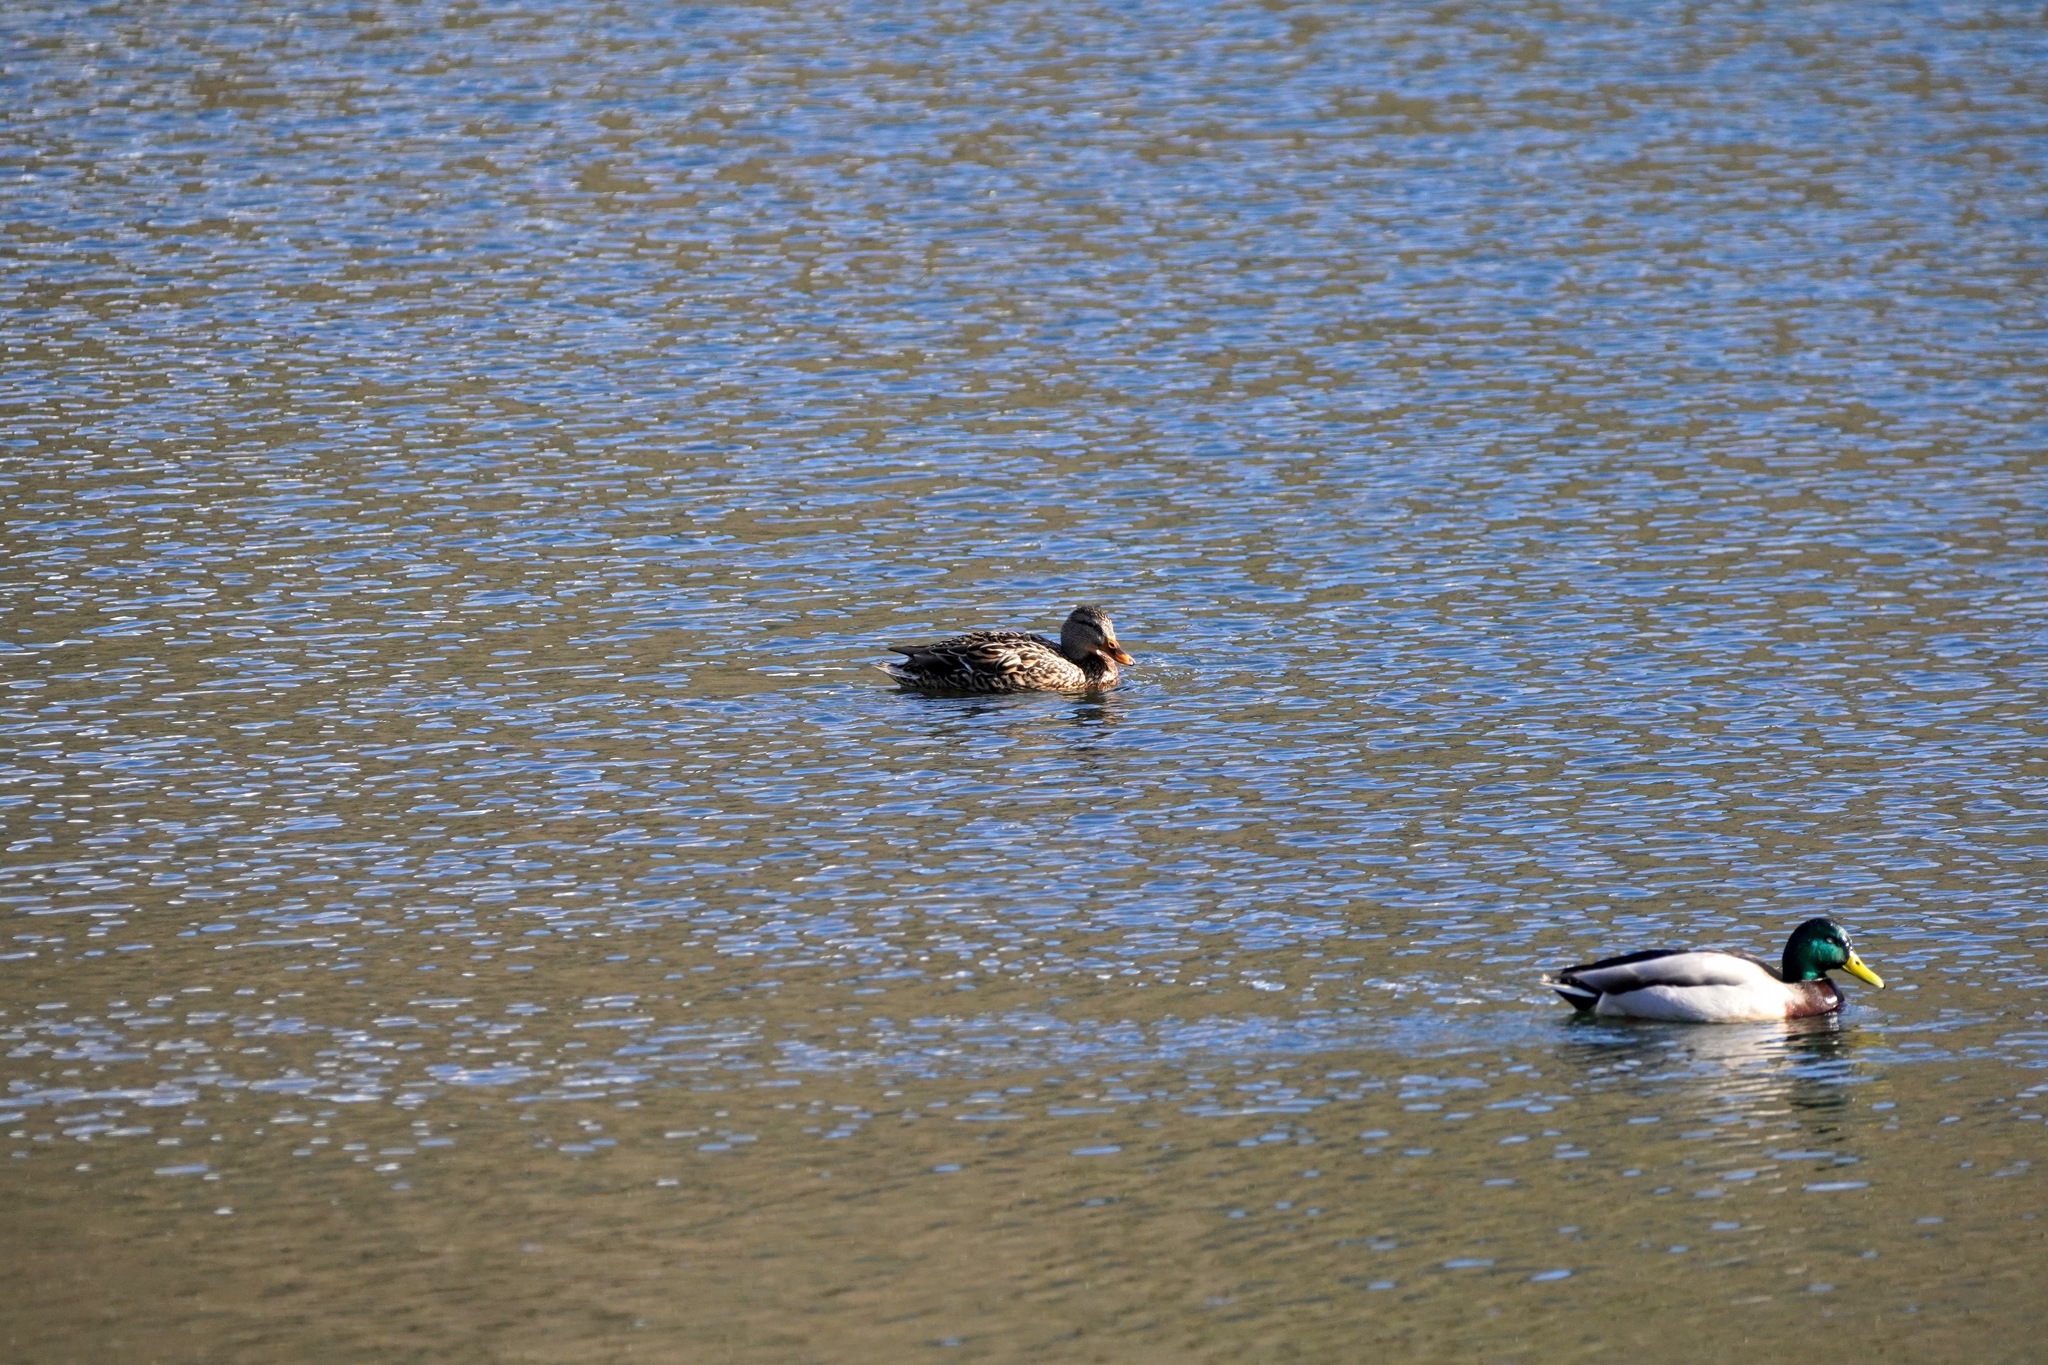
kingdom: Animalia
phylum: Chordata
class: Aves
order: Anseriformes
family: Anatidae
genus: Anas
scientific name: Anas platyrhynchos
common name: Mallard
